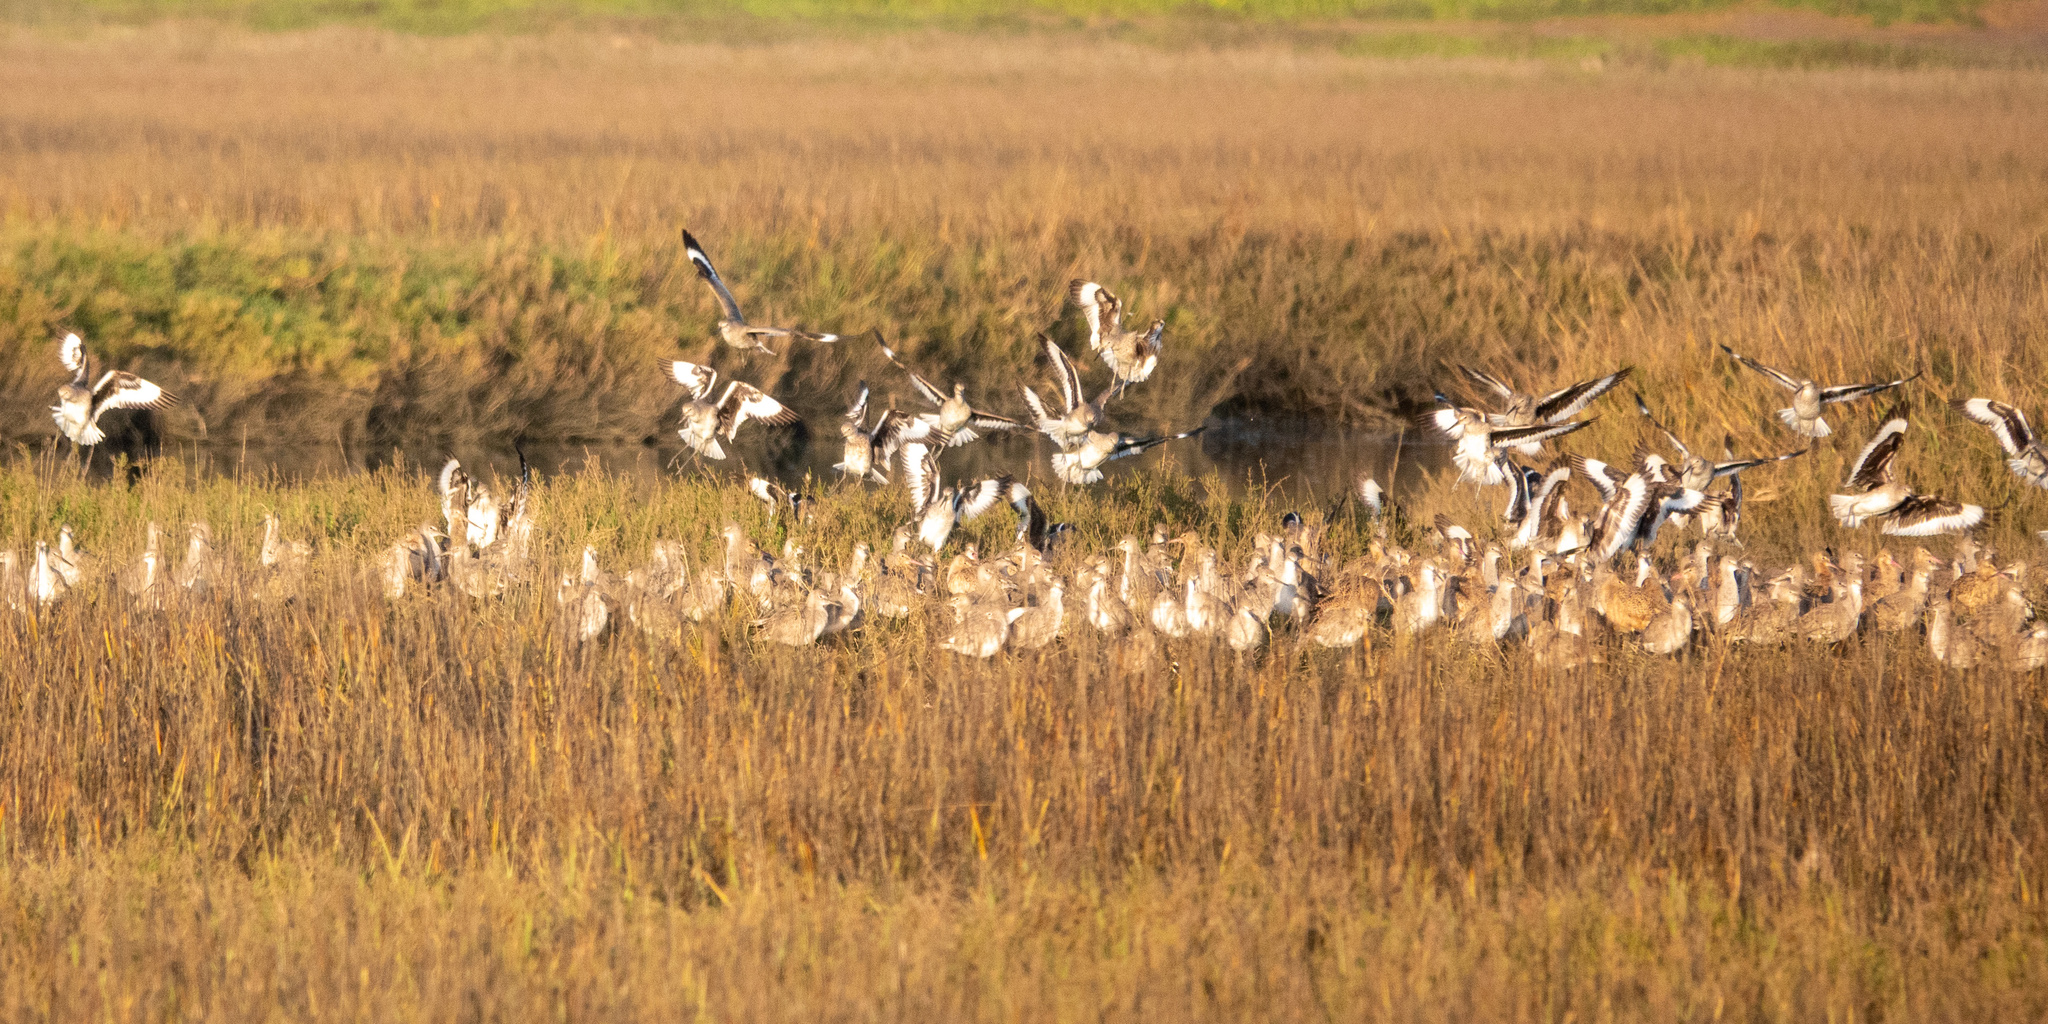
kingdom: Animalia
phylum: Chordata
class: Aves
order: Charadriiformes
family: Scolopacidae
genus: Tringa
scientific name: Tringa semipalmata
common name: Willet
